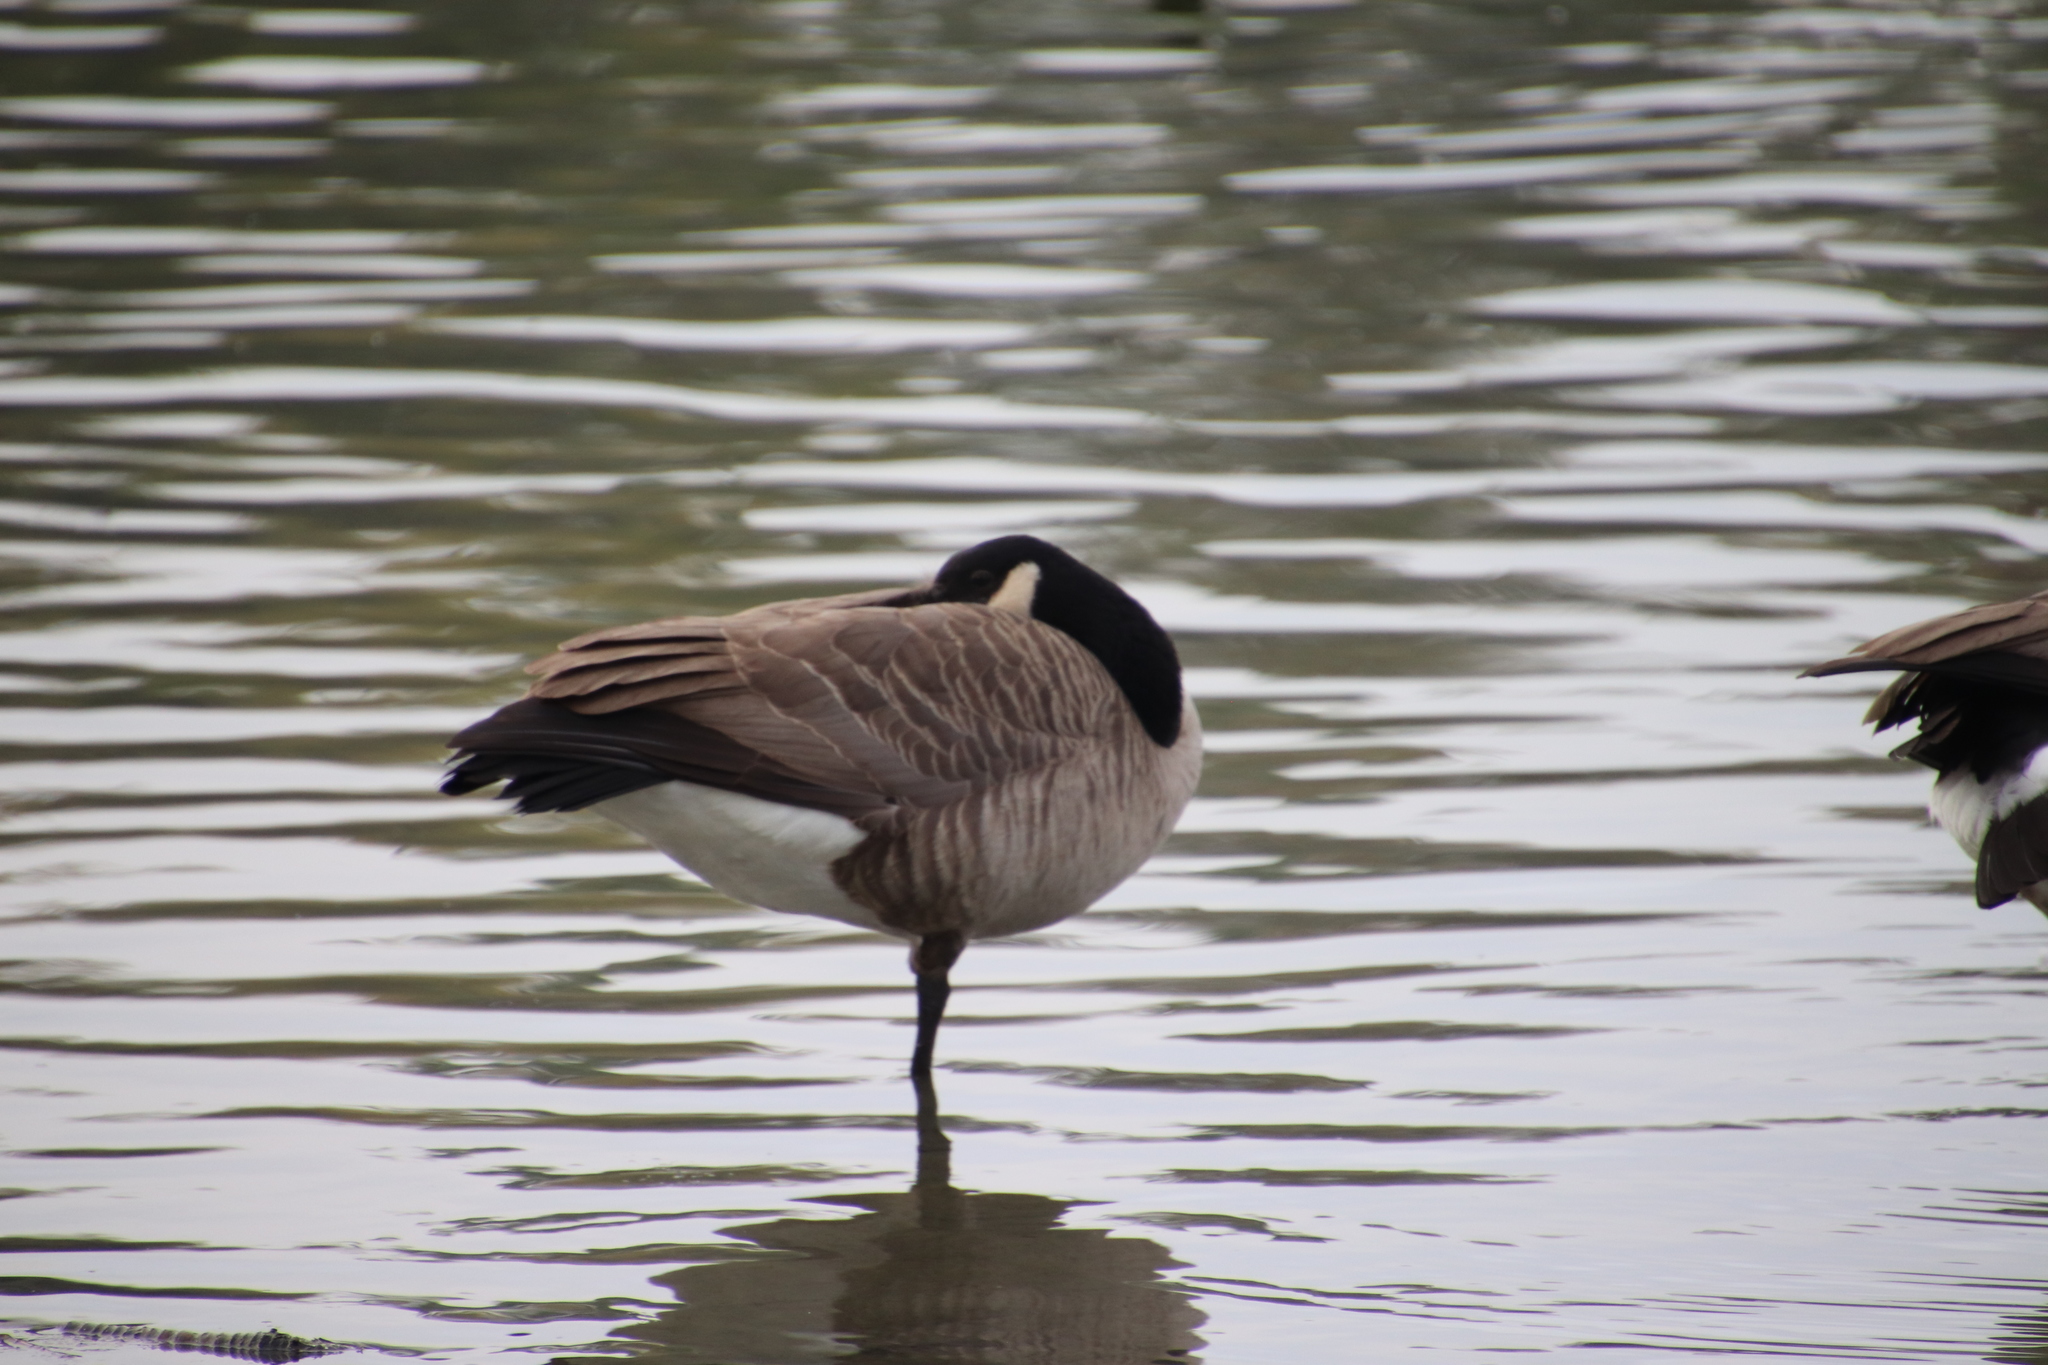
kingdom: Animalia
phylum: Chordata
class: Aves
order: Anseriformes
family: Anatidae
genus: Branta
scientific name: Branta canadensis
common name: Canada goose
